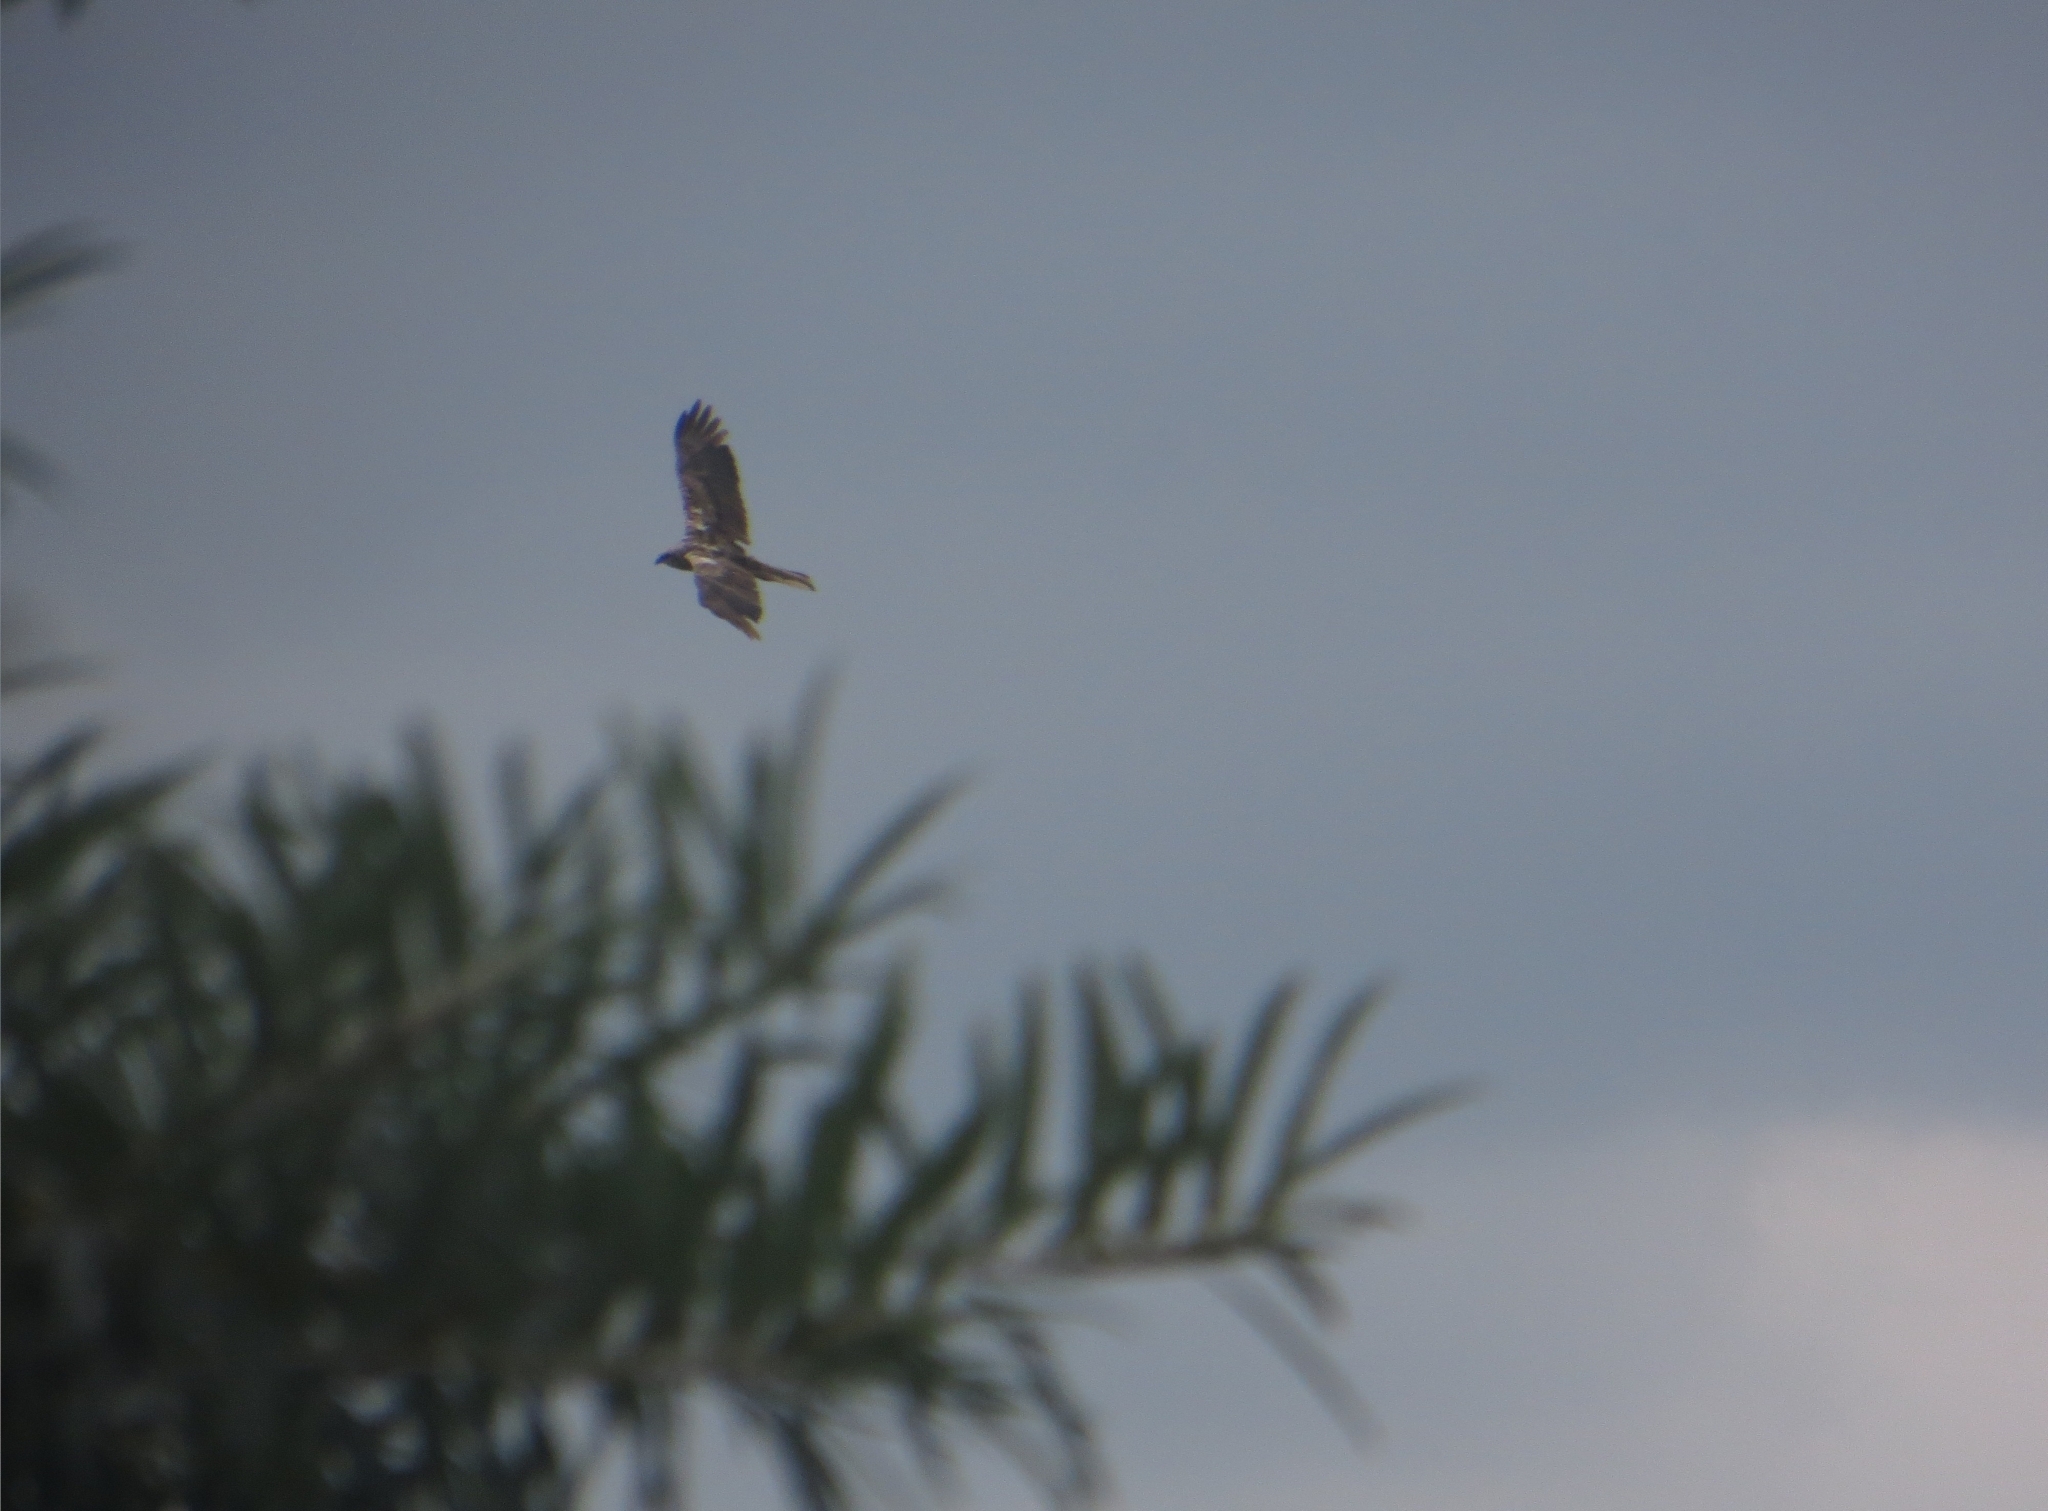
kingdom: Animalia
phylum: Chordata
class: Aves
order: Accipitriformes
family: Accipitridae
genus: Circus
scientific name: Circus aeruginosus
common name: Western marsh harrier
